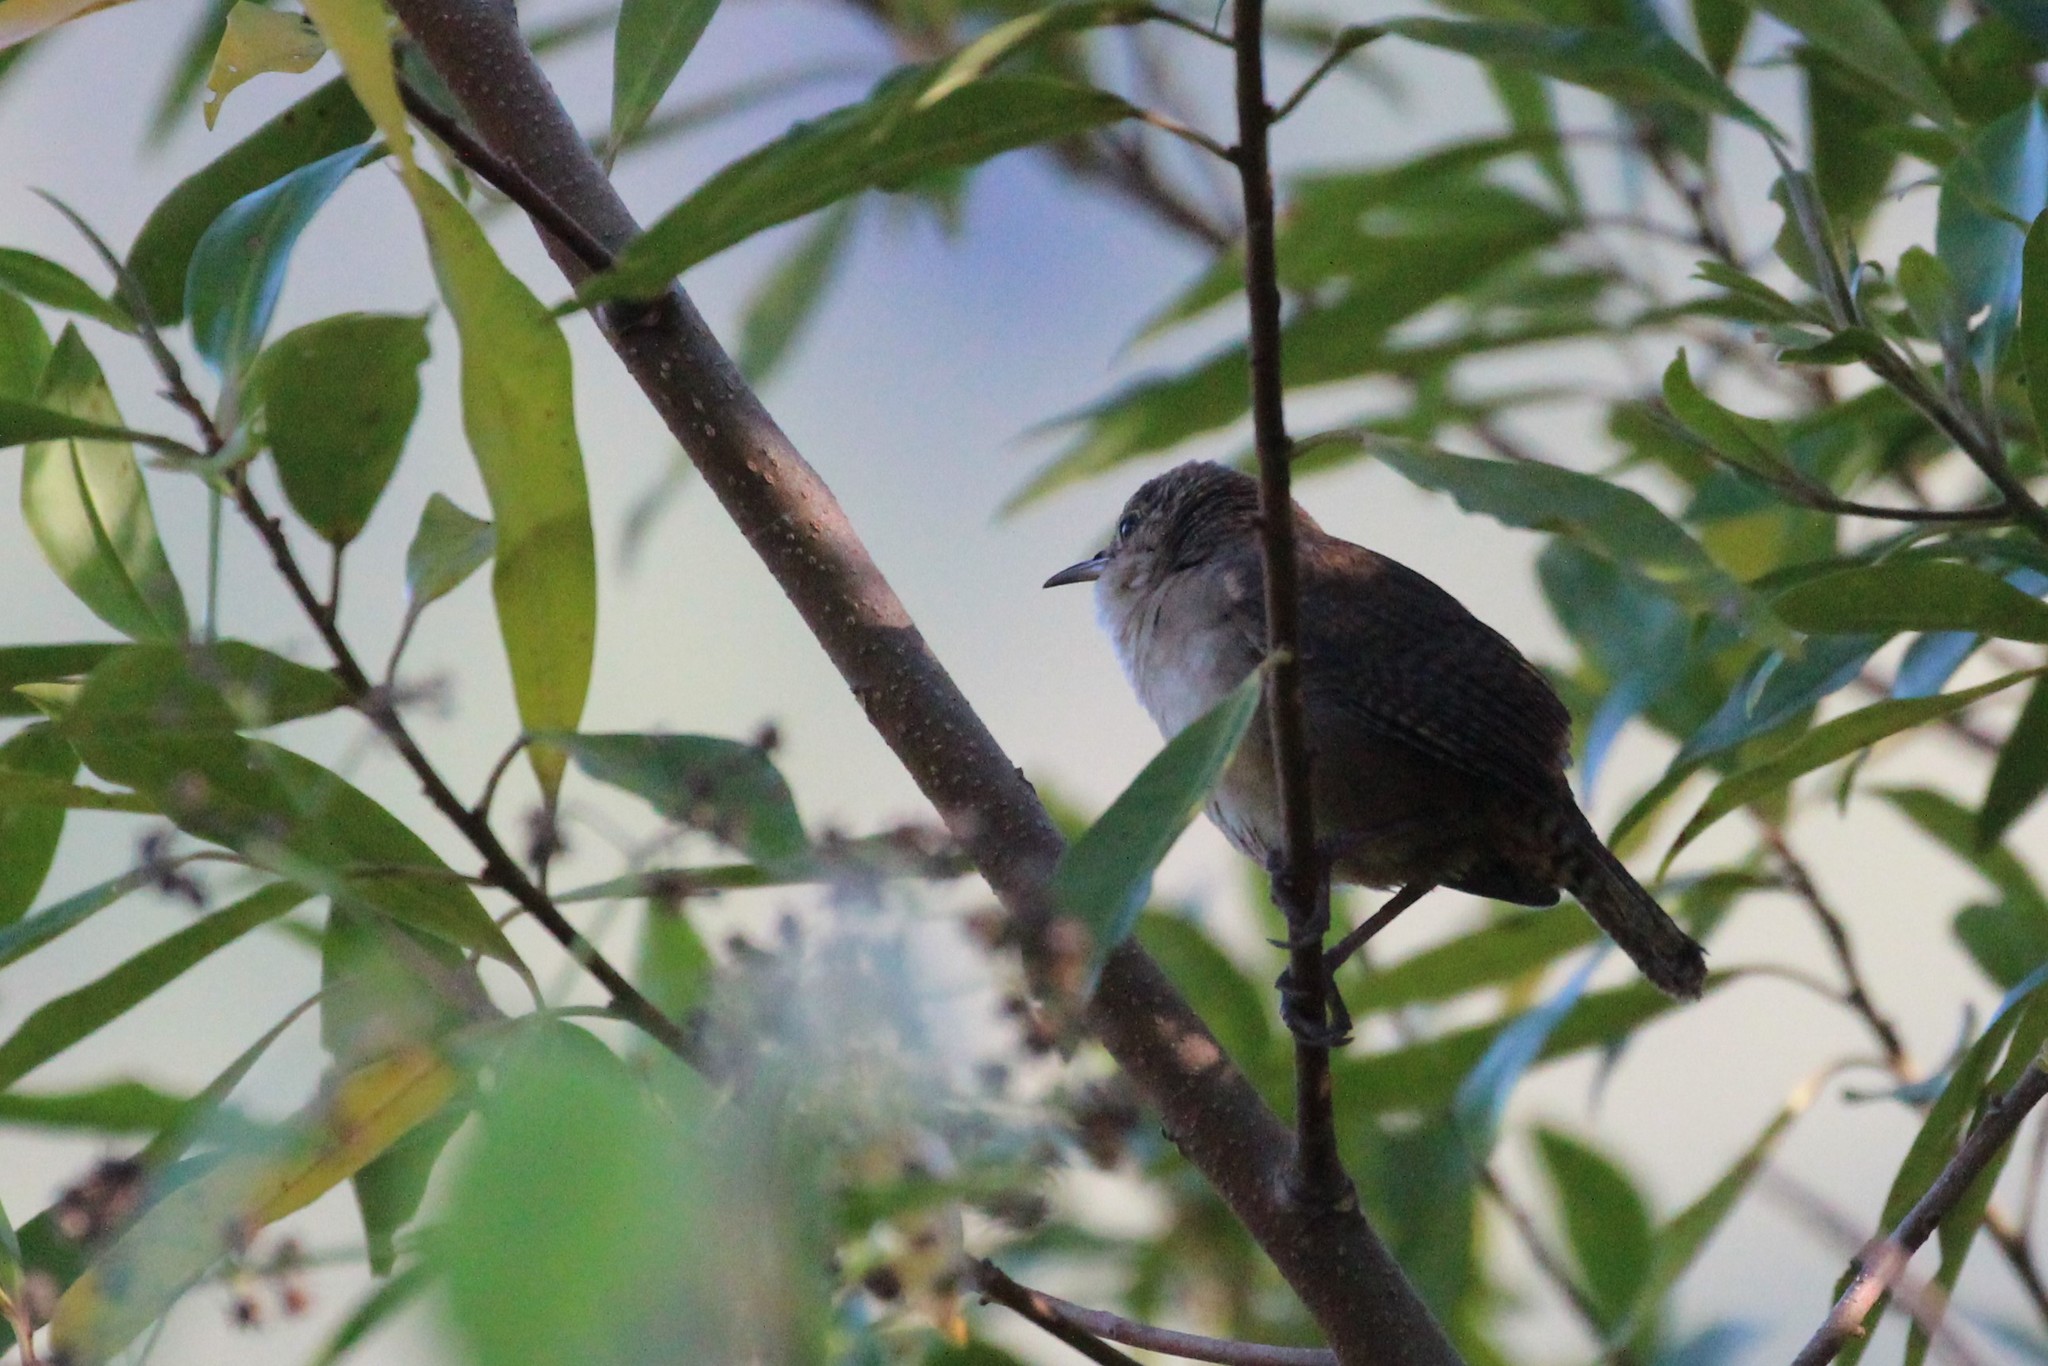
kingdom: Animalia
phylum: Chordata
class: Aves
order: Passeriformes
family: Troglodytidae
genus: Troglodytes
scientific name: Troglodytes aedon
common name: House wren
